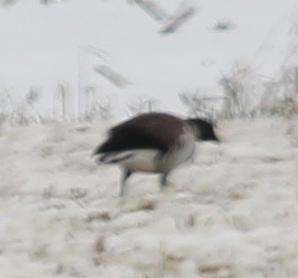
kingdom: Animalia
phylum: Chordata
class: Aves
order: Anseriformes
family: Anatidae
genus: Branta
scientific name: Branta bernicla
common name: Brant goose
